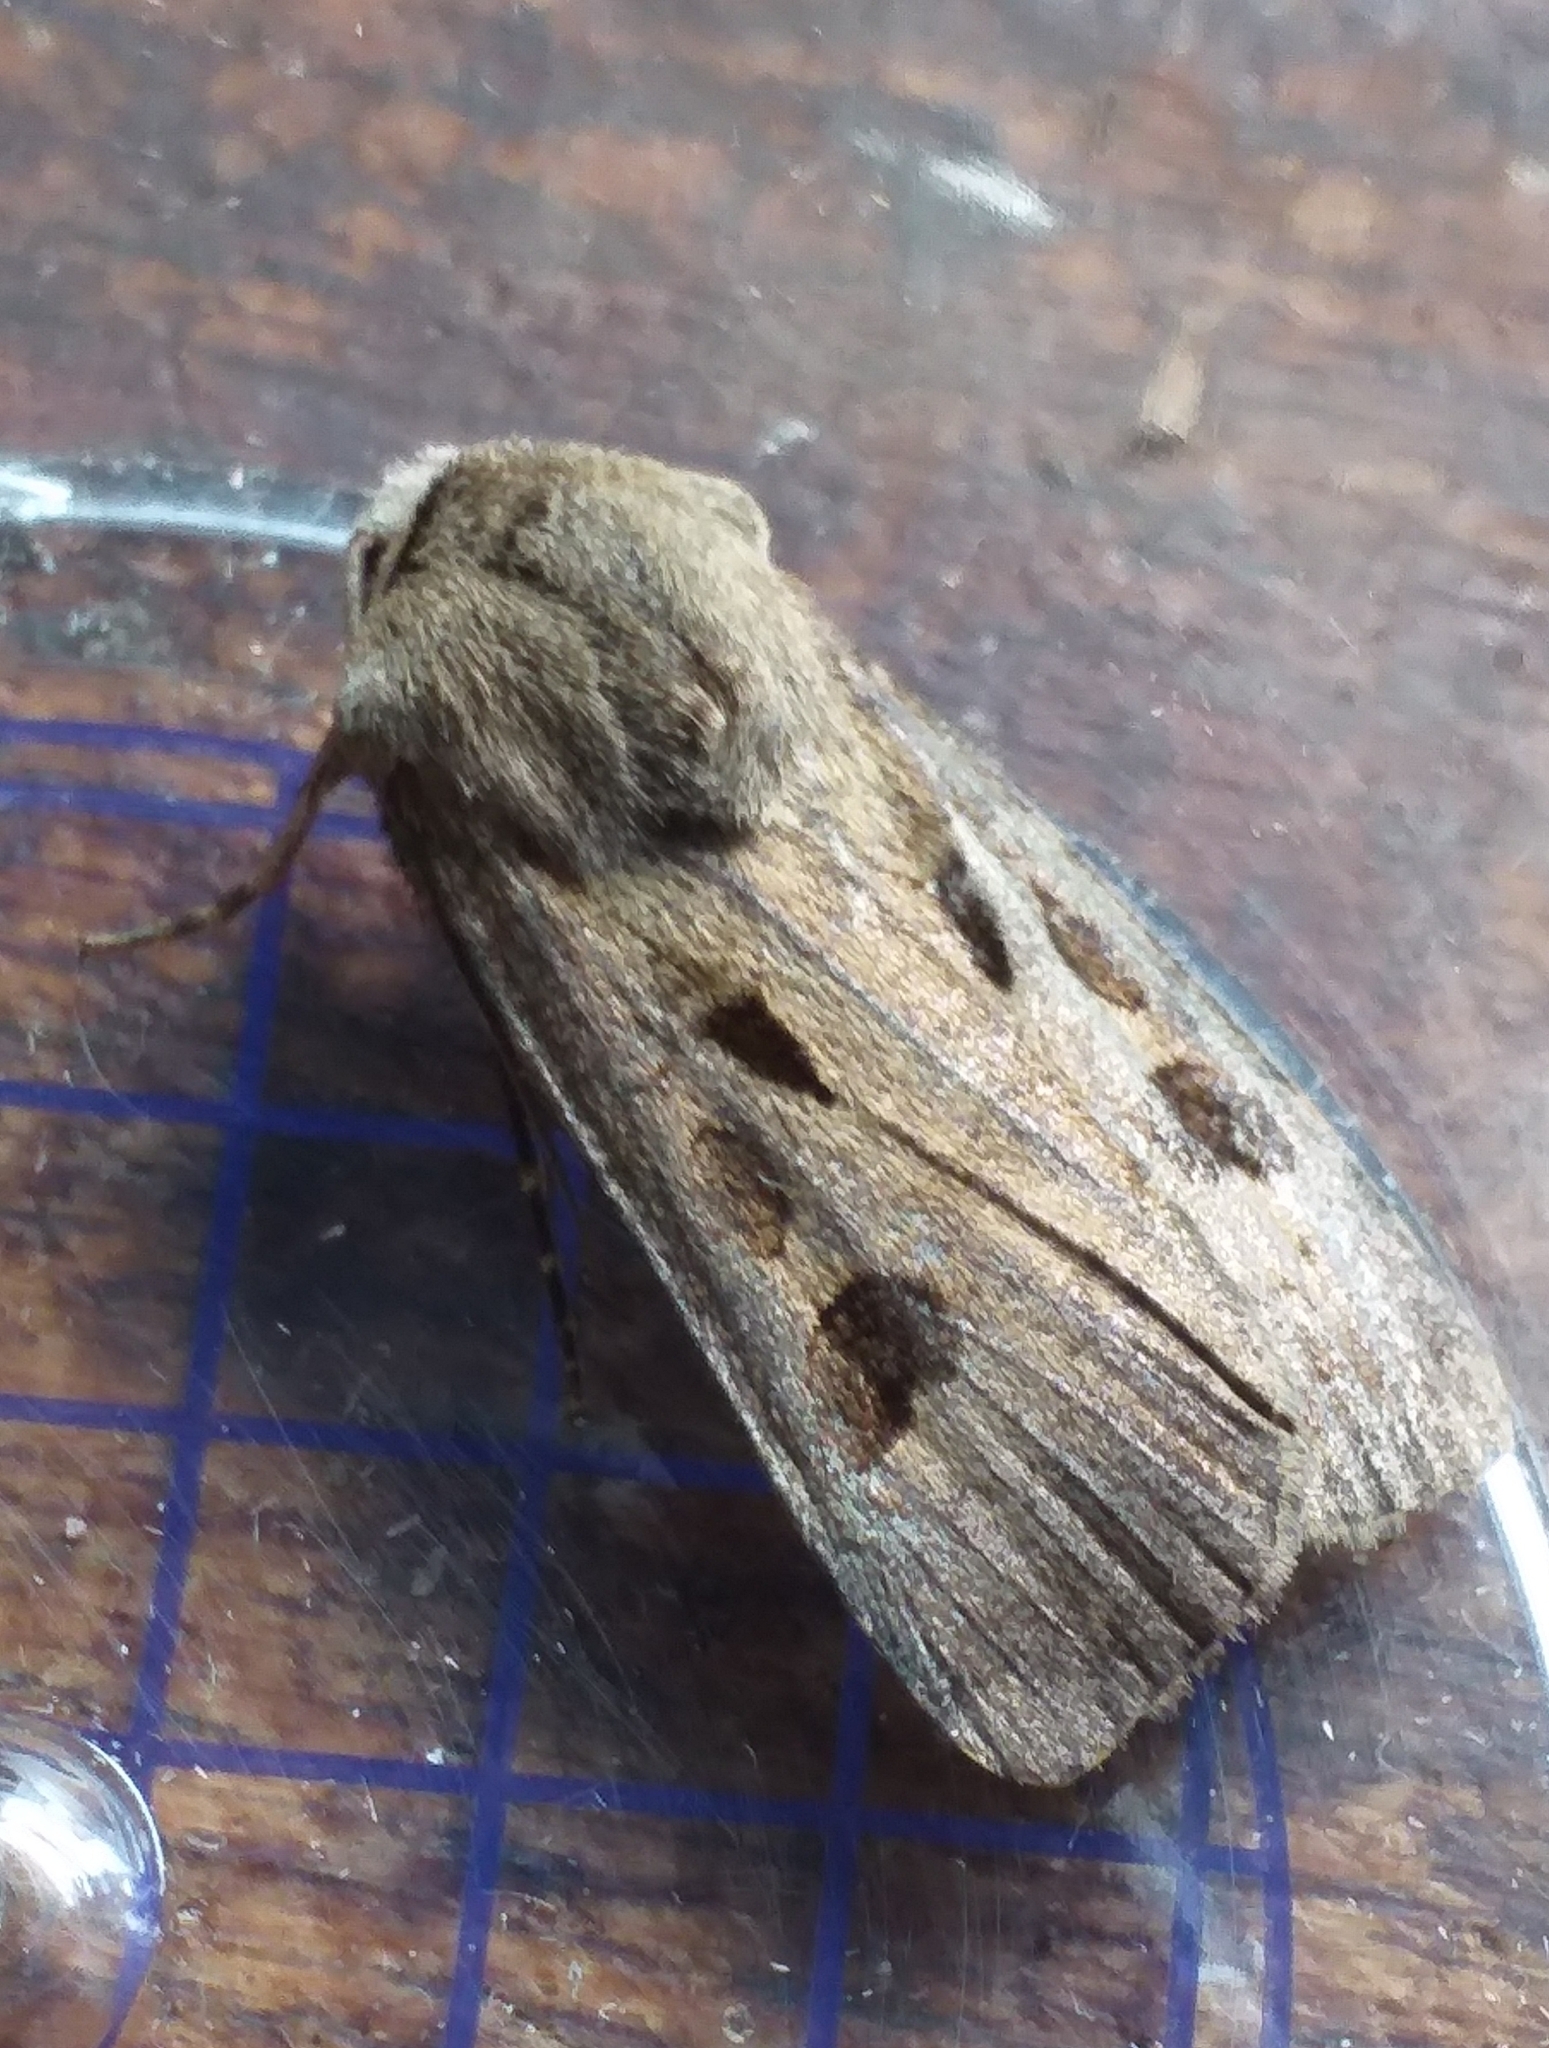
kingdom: Animalia
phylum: Arthropoda
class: Insecta
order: Lepidoptera
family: Noctuidae
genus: Agrotis
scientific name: Agrotis exclamationis
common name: Heart and dart
